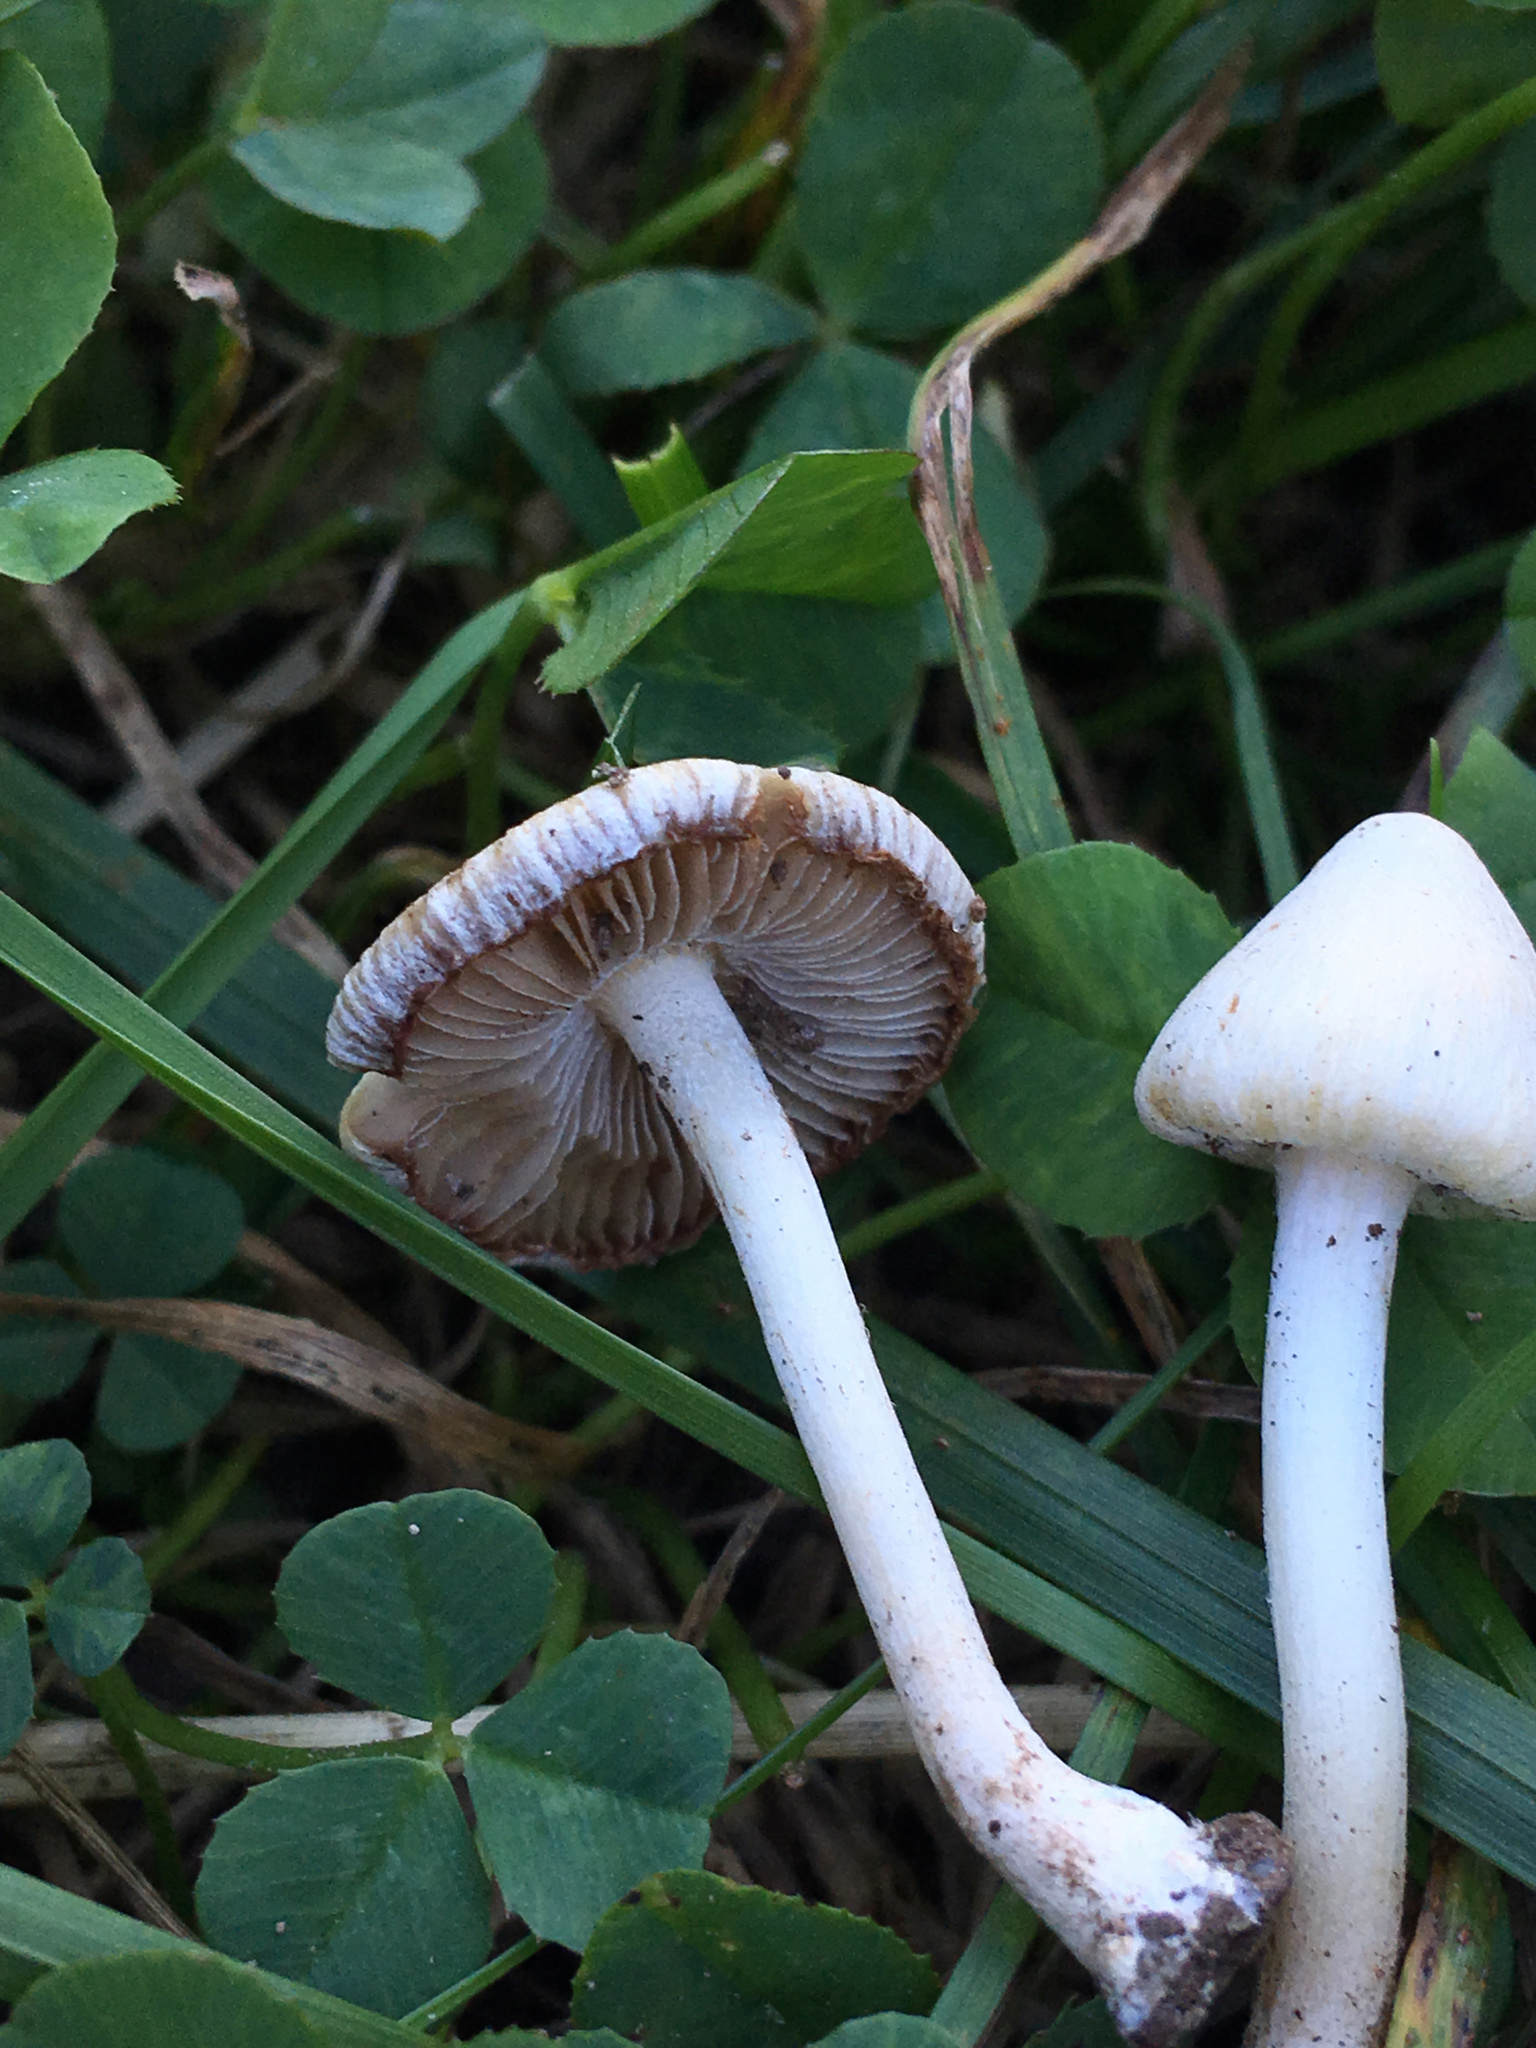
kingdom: Fungi
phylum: Basidiomycota
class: Agaricomycetes
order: Agaricales
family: Inocybaceae
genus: Inocybe
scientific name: Inocybe geophylla
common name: White fibrecap
